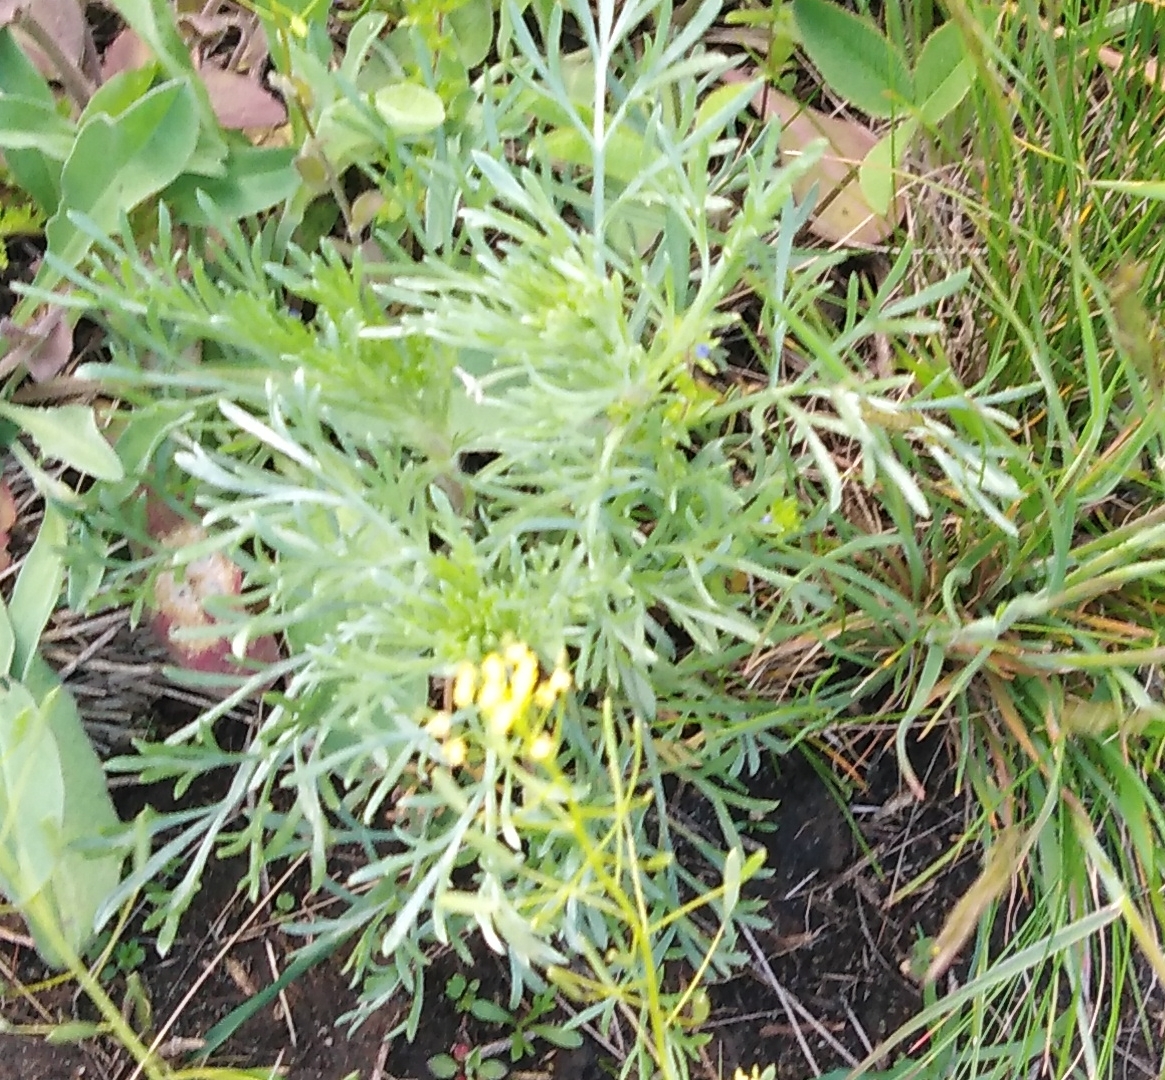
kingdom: Plantae
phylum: Tracheophyta
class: Magnoliopsida
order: Asterales
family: Asteraceae
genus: Artemisia
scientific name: Artemisia campestris
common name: Field wormwood
